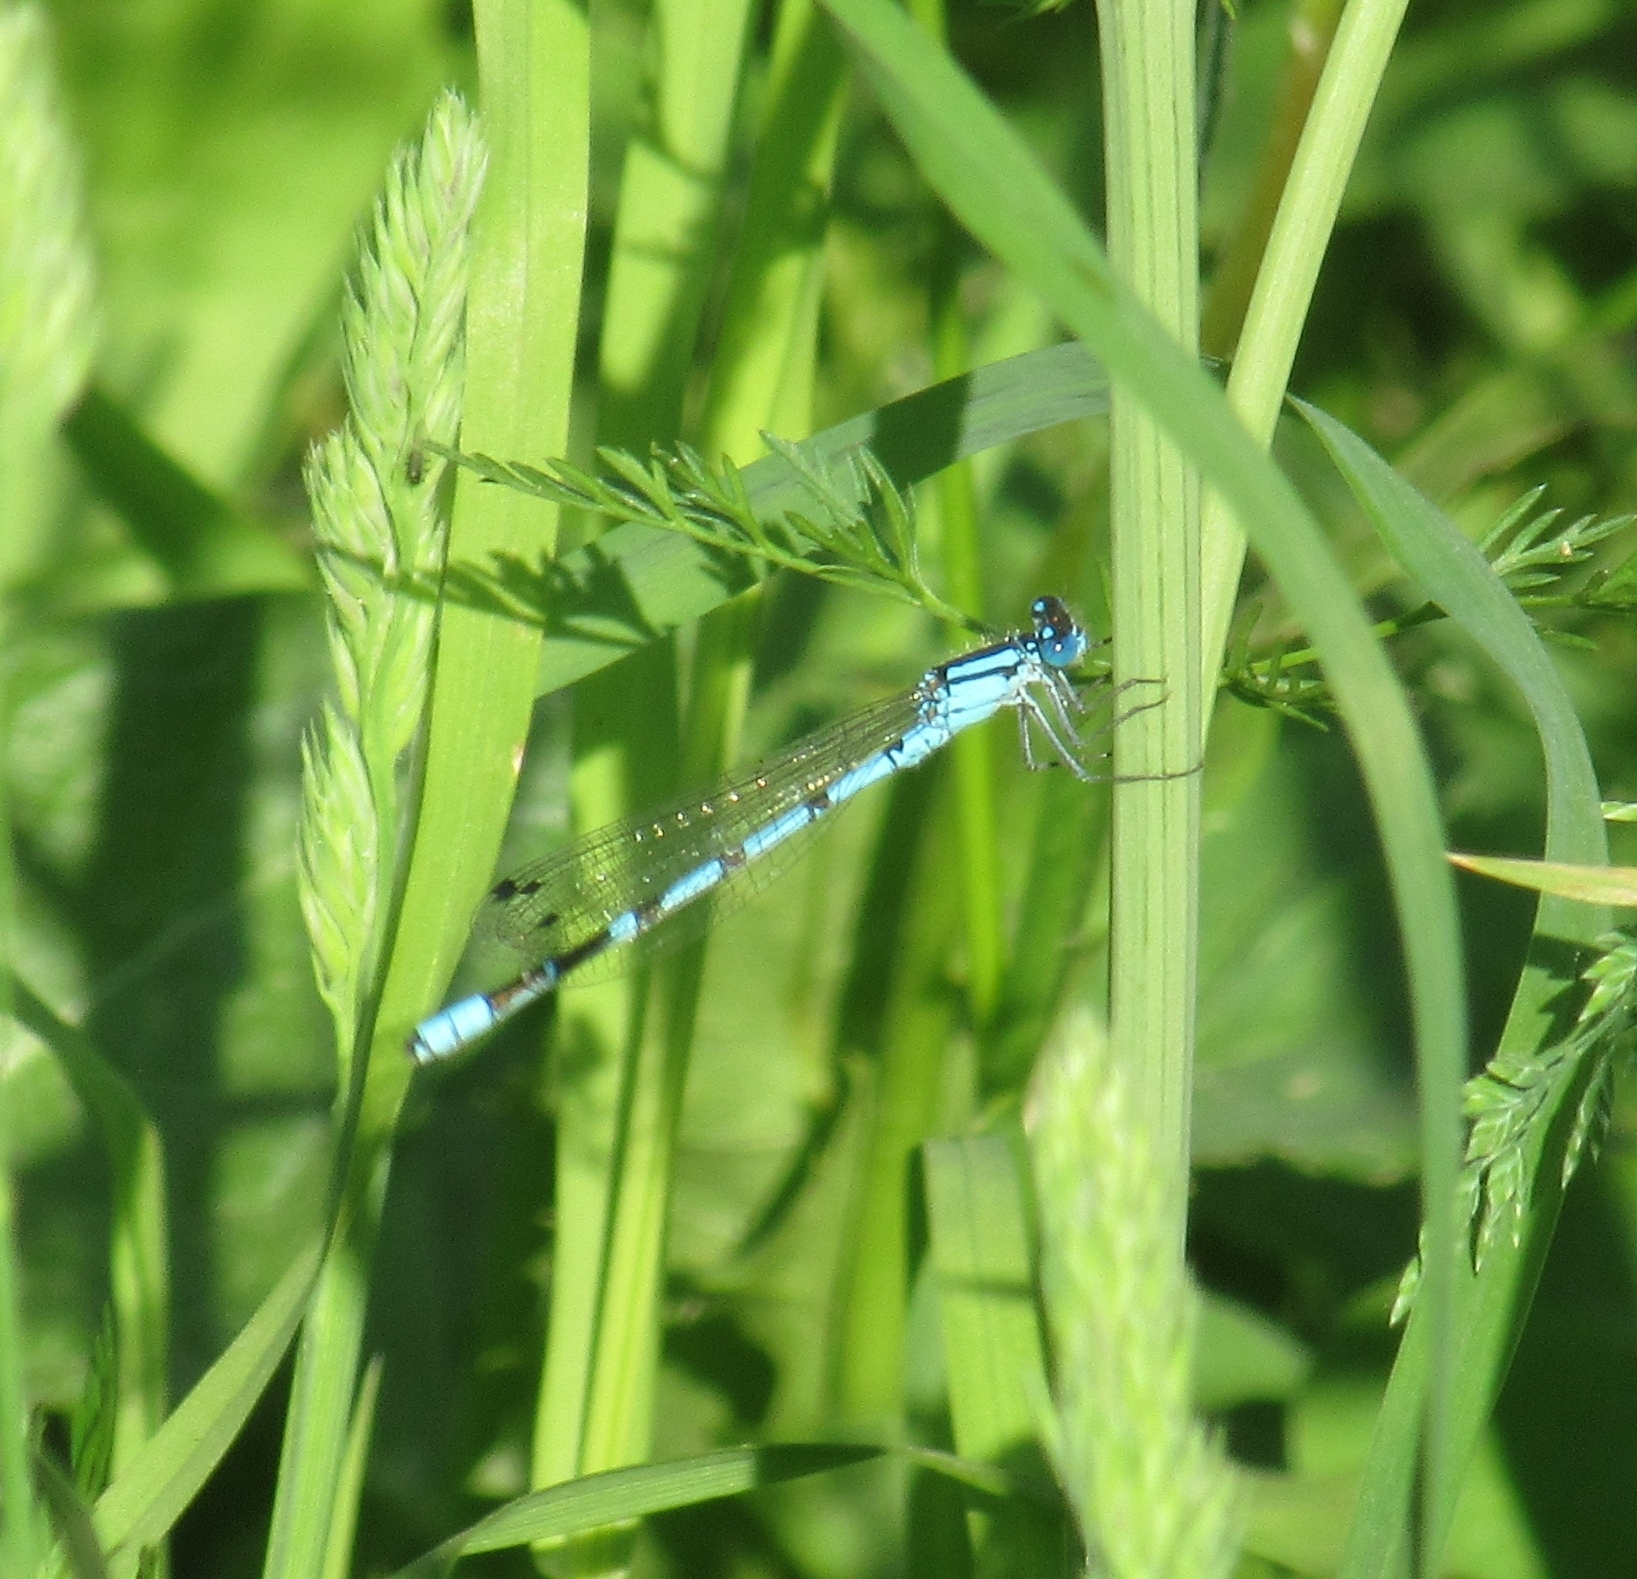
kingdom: Animalia
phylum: Arthropoda
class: Insecta
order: Odonata
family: Coenagrionidae
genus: Enallagma
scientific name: Enallagma cyathigerum
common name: Common blue damselfly
